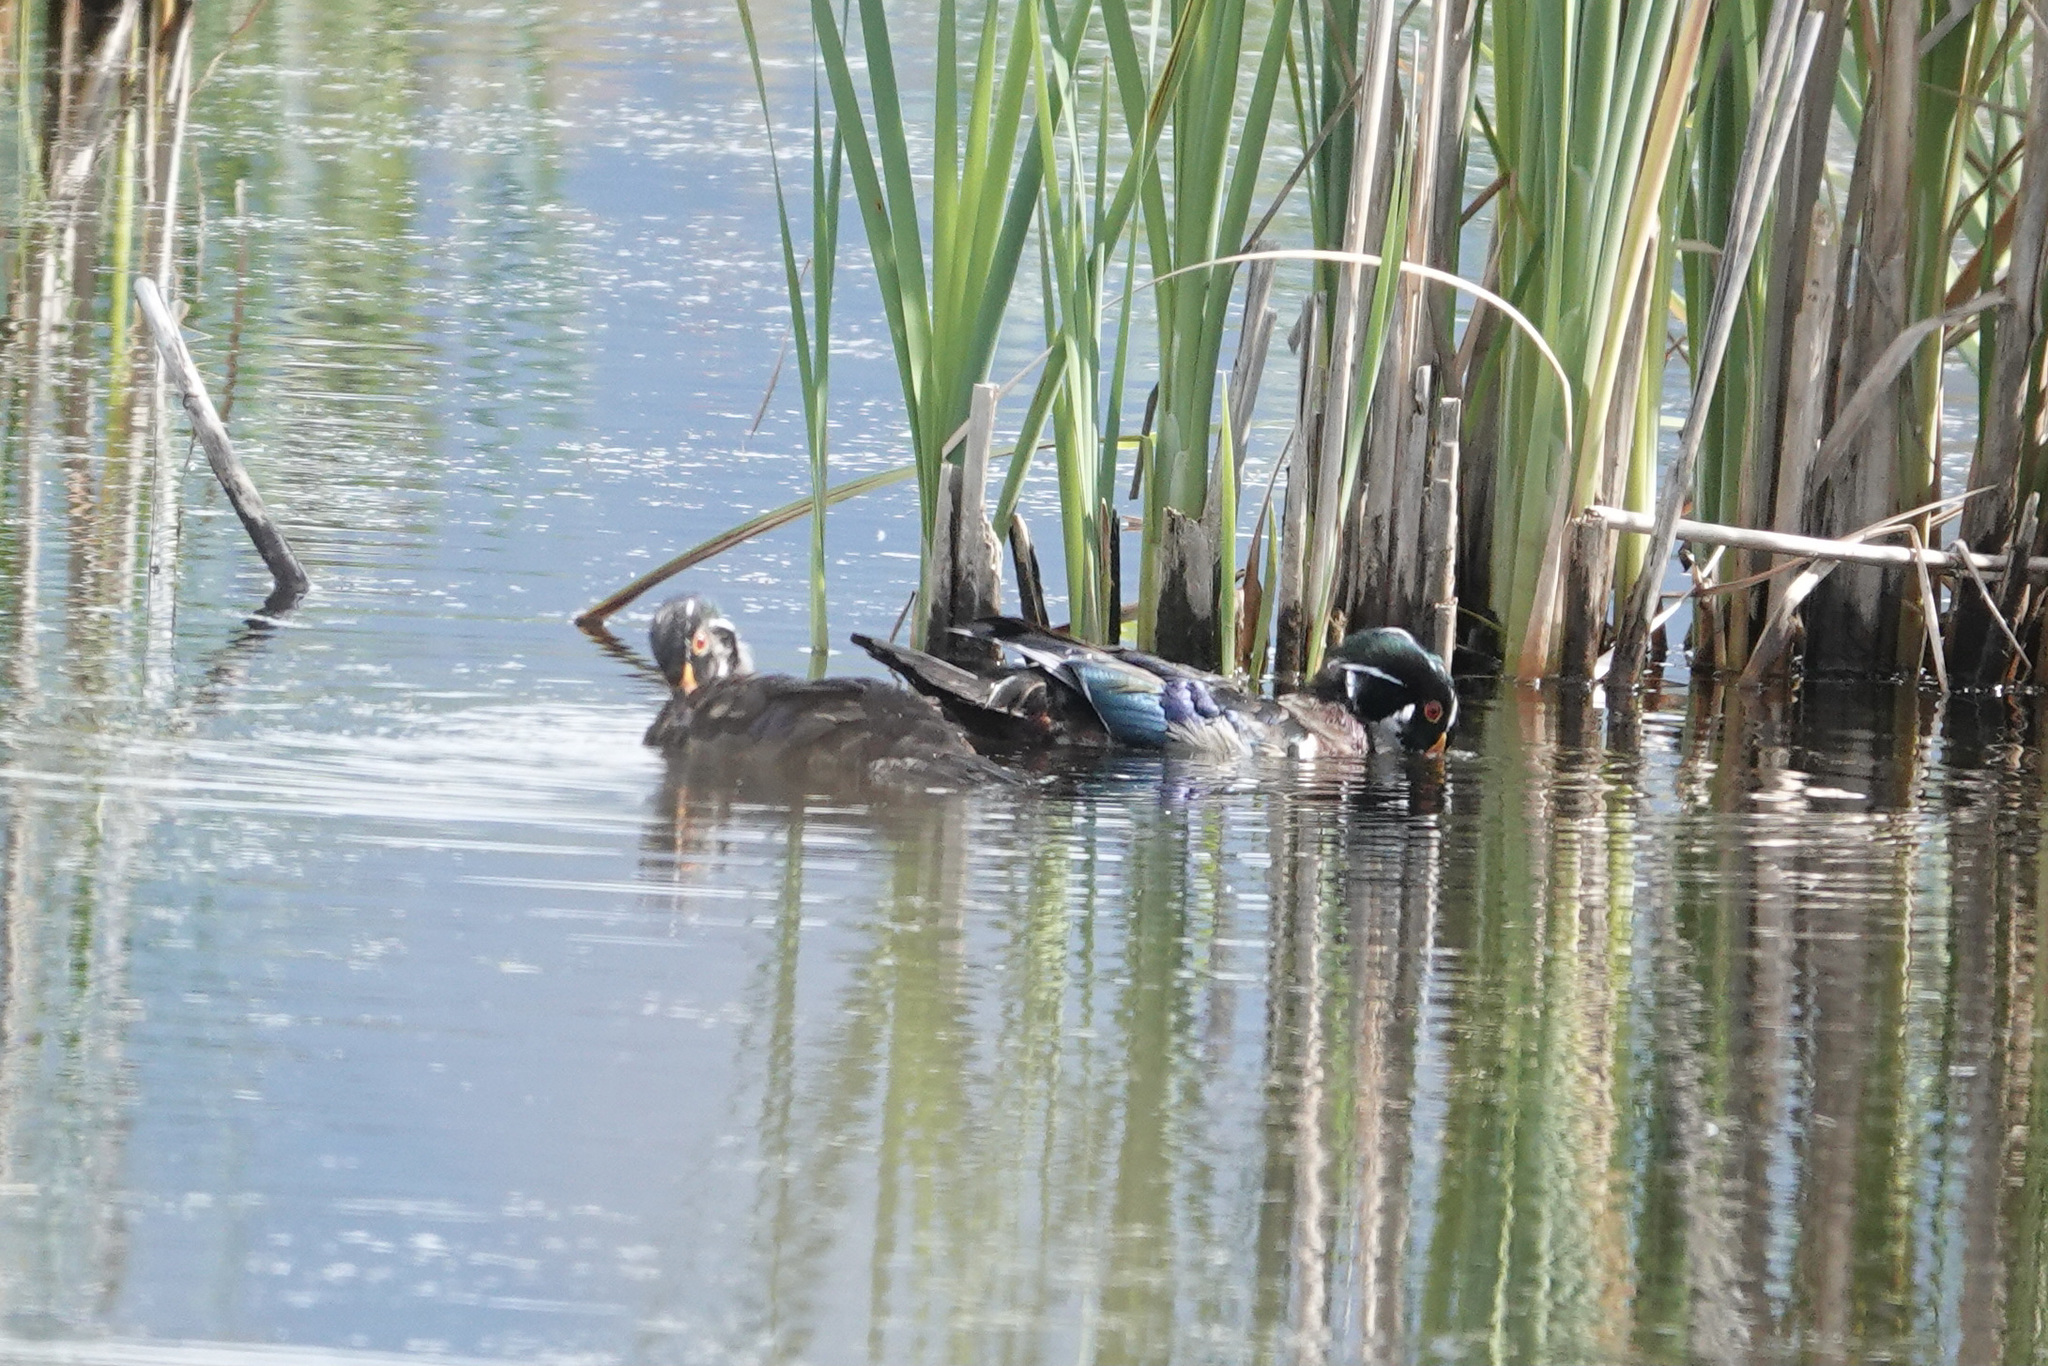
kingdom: Animalia
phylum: Chordata
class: Aves
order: Anseriformes
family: Anatidae
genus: Aix
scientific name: Aix sponsa
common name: Wood duck
